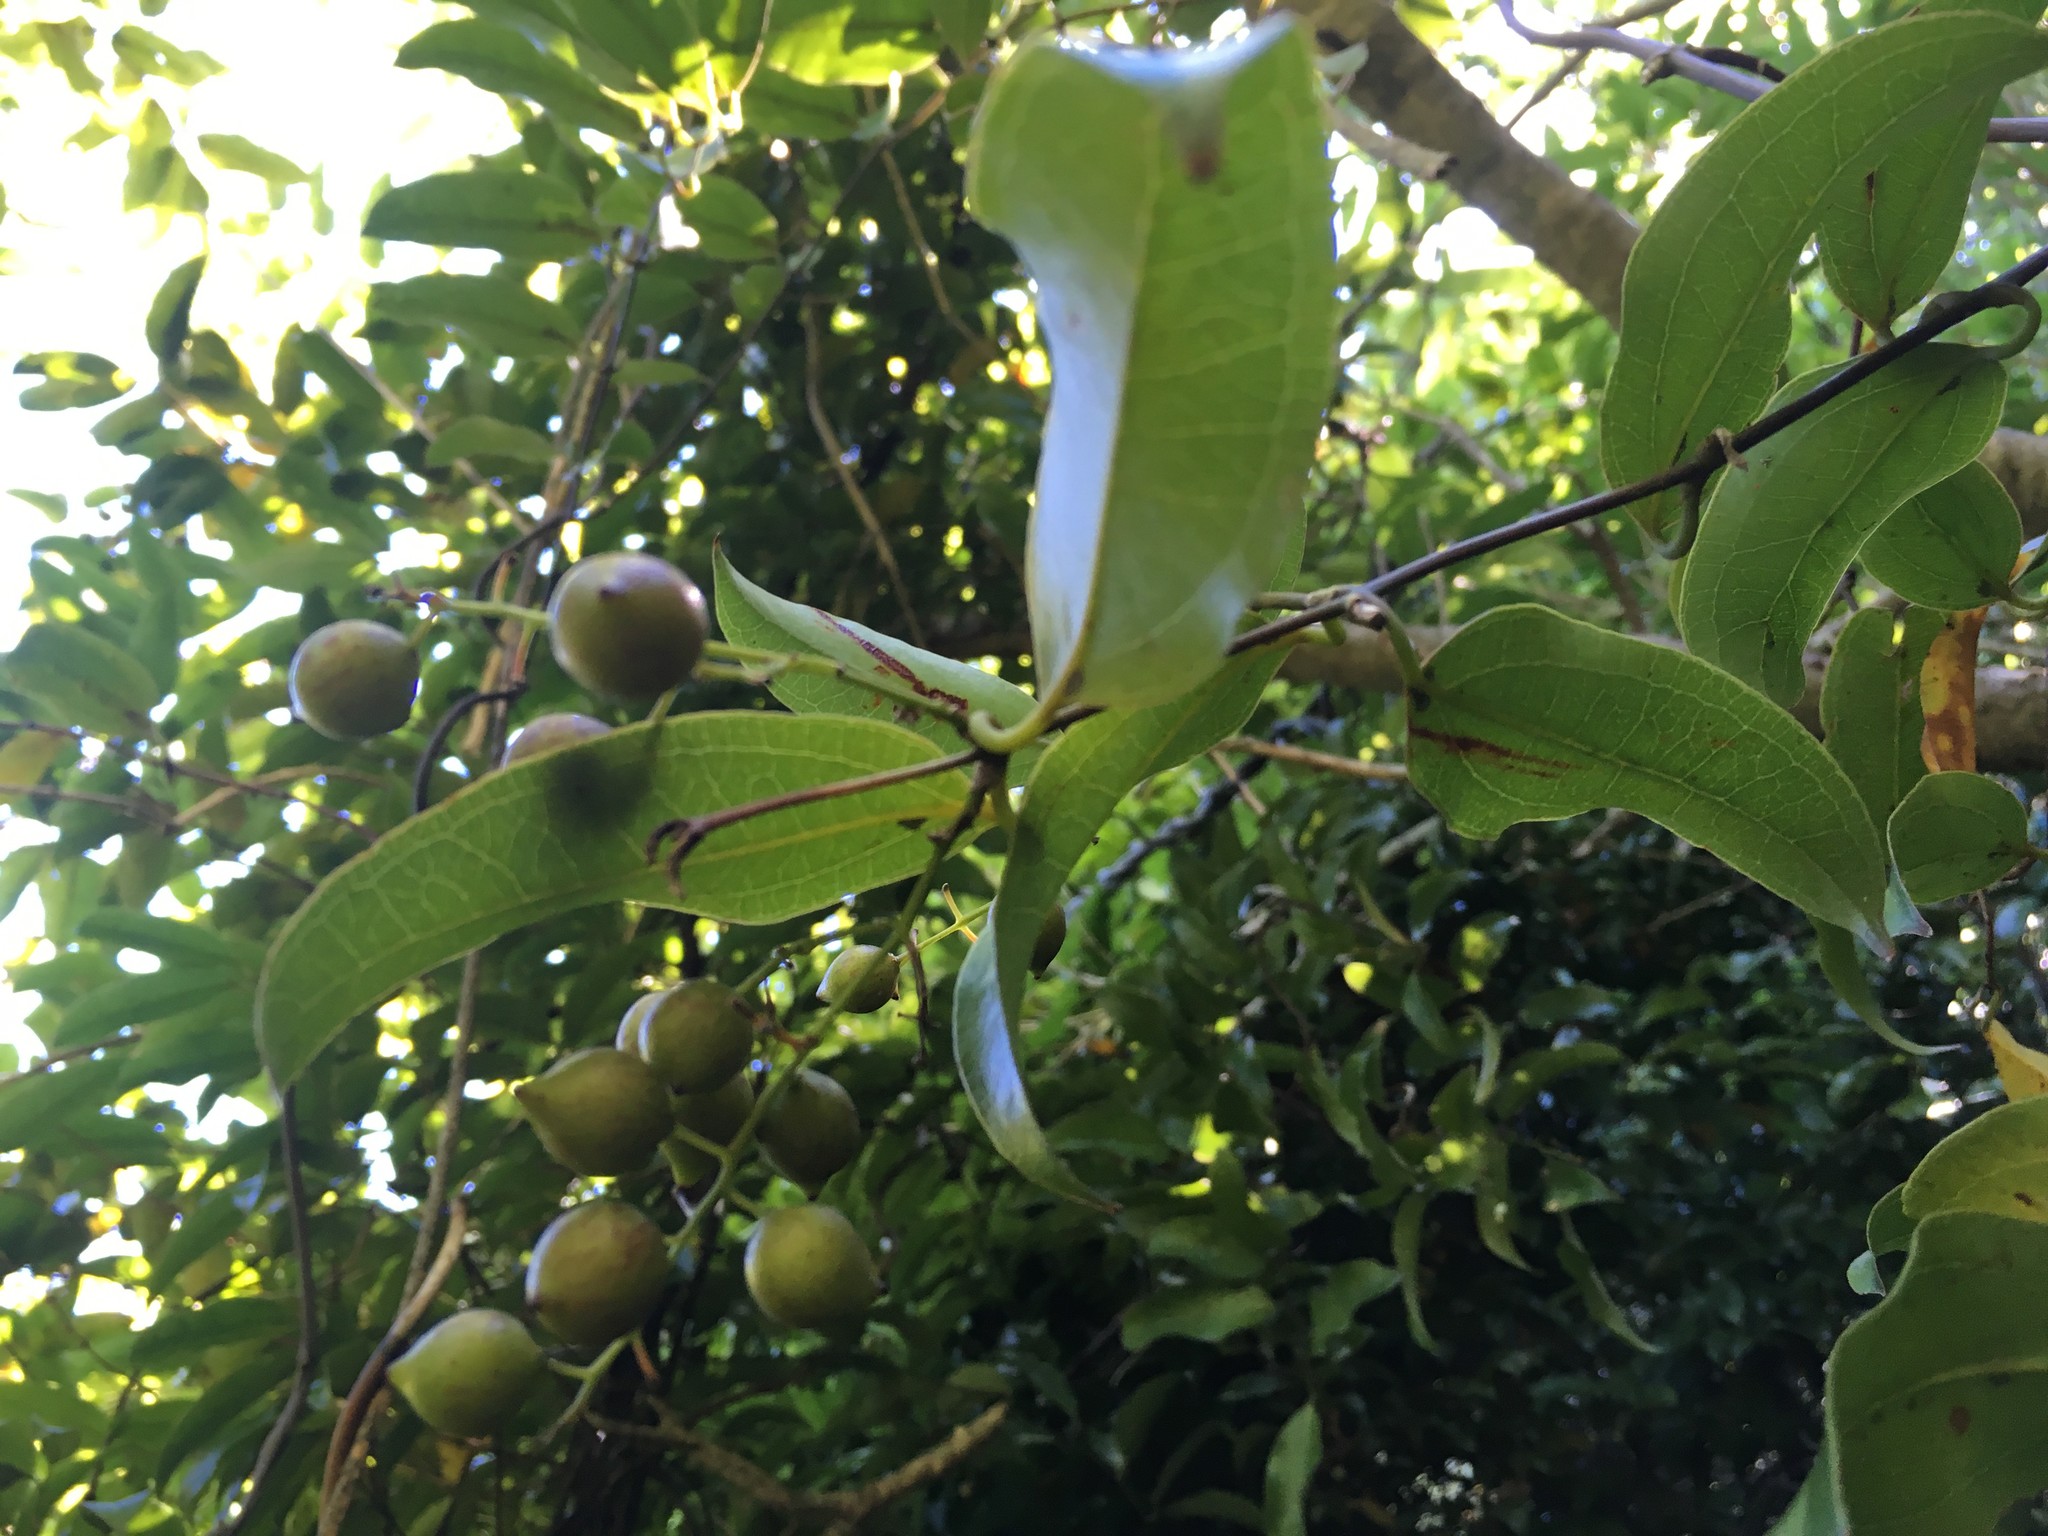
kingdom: Plantae
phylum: Tracheophyta
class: Liliopsida
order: Liliales
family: Ripogonaceae
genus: Ripogonum
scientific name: Ripogonum scandens
